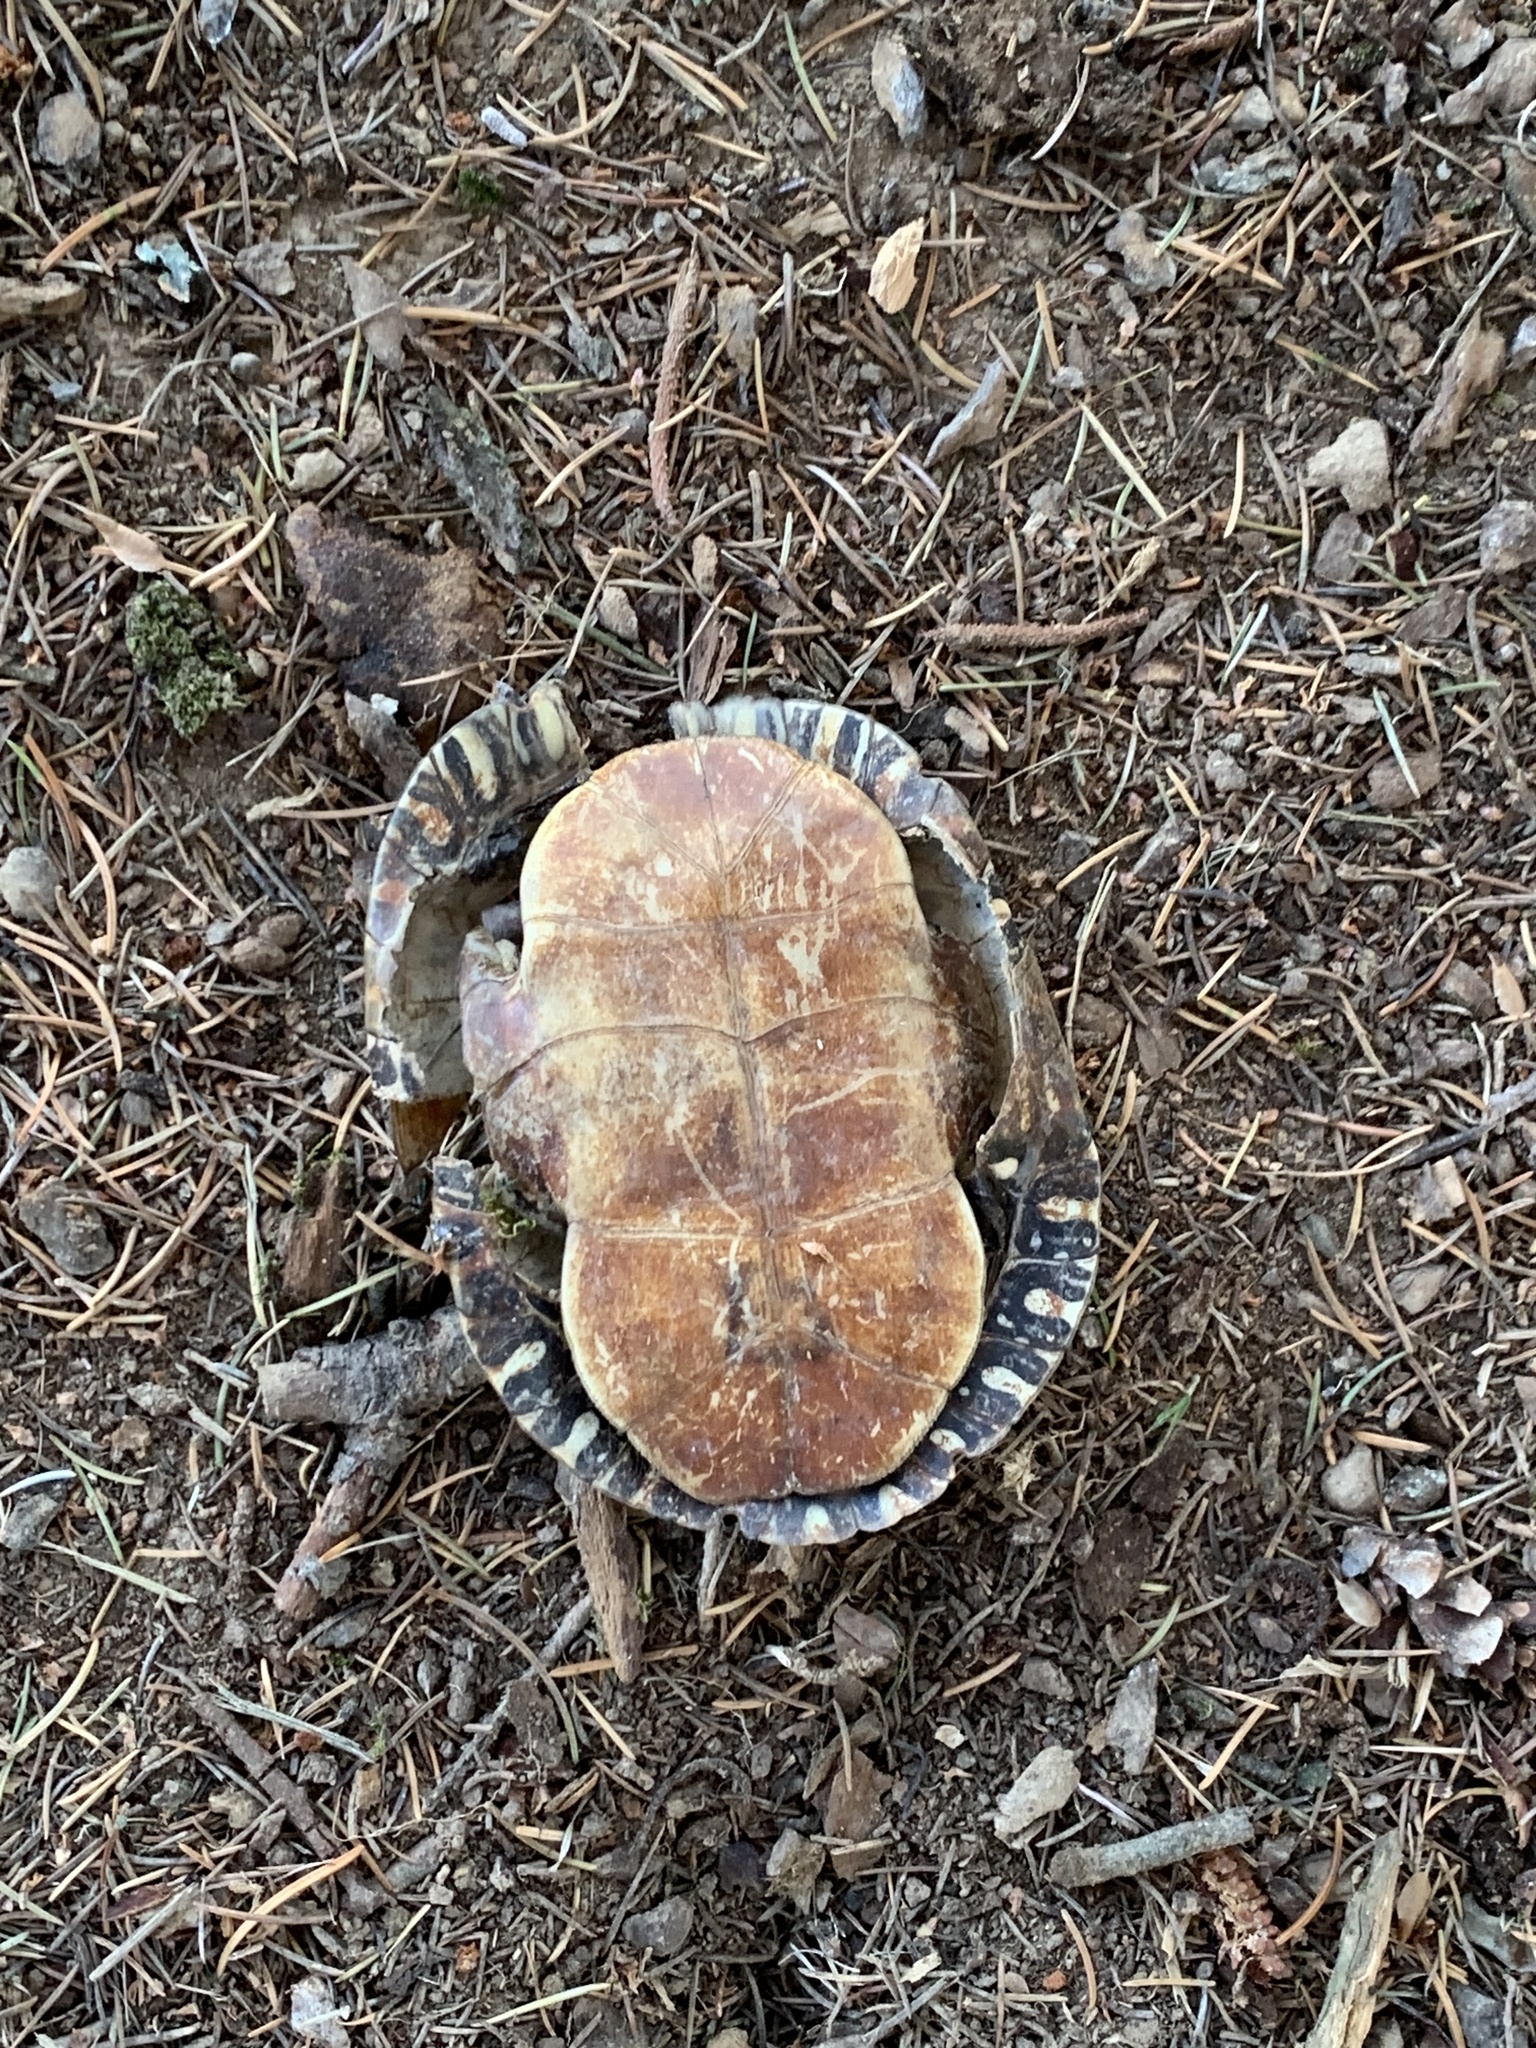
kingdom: Animalia
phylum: Chordata
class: Testudines
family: Emydidae
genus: Chrysemys
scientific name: Chrysemys picta
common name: Painted turtle
